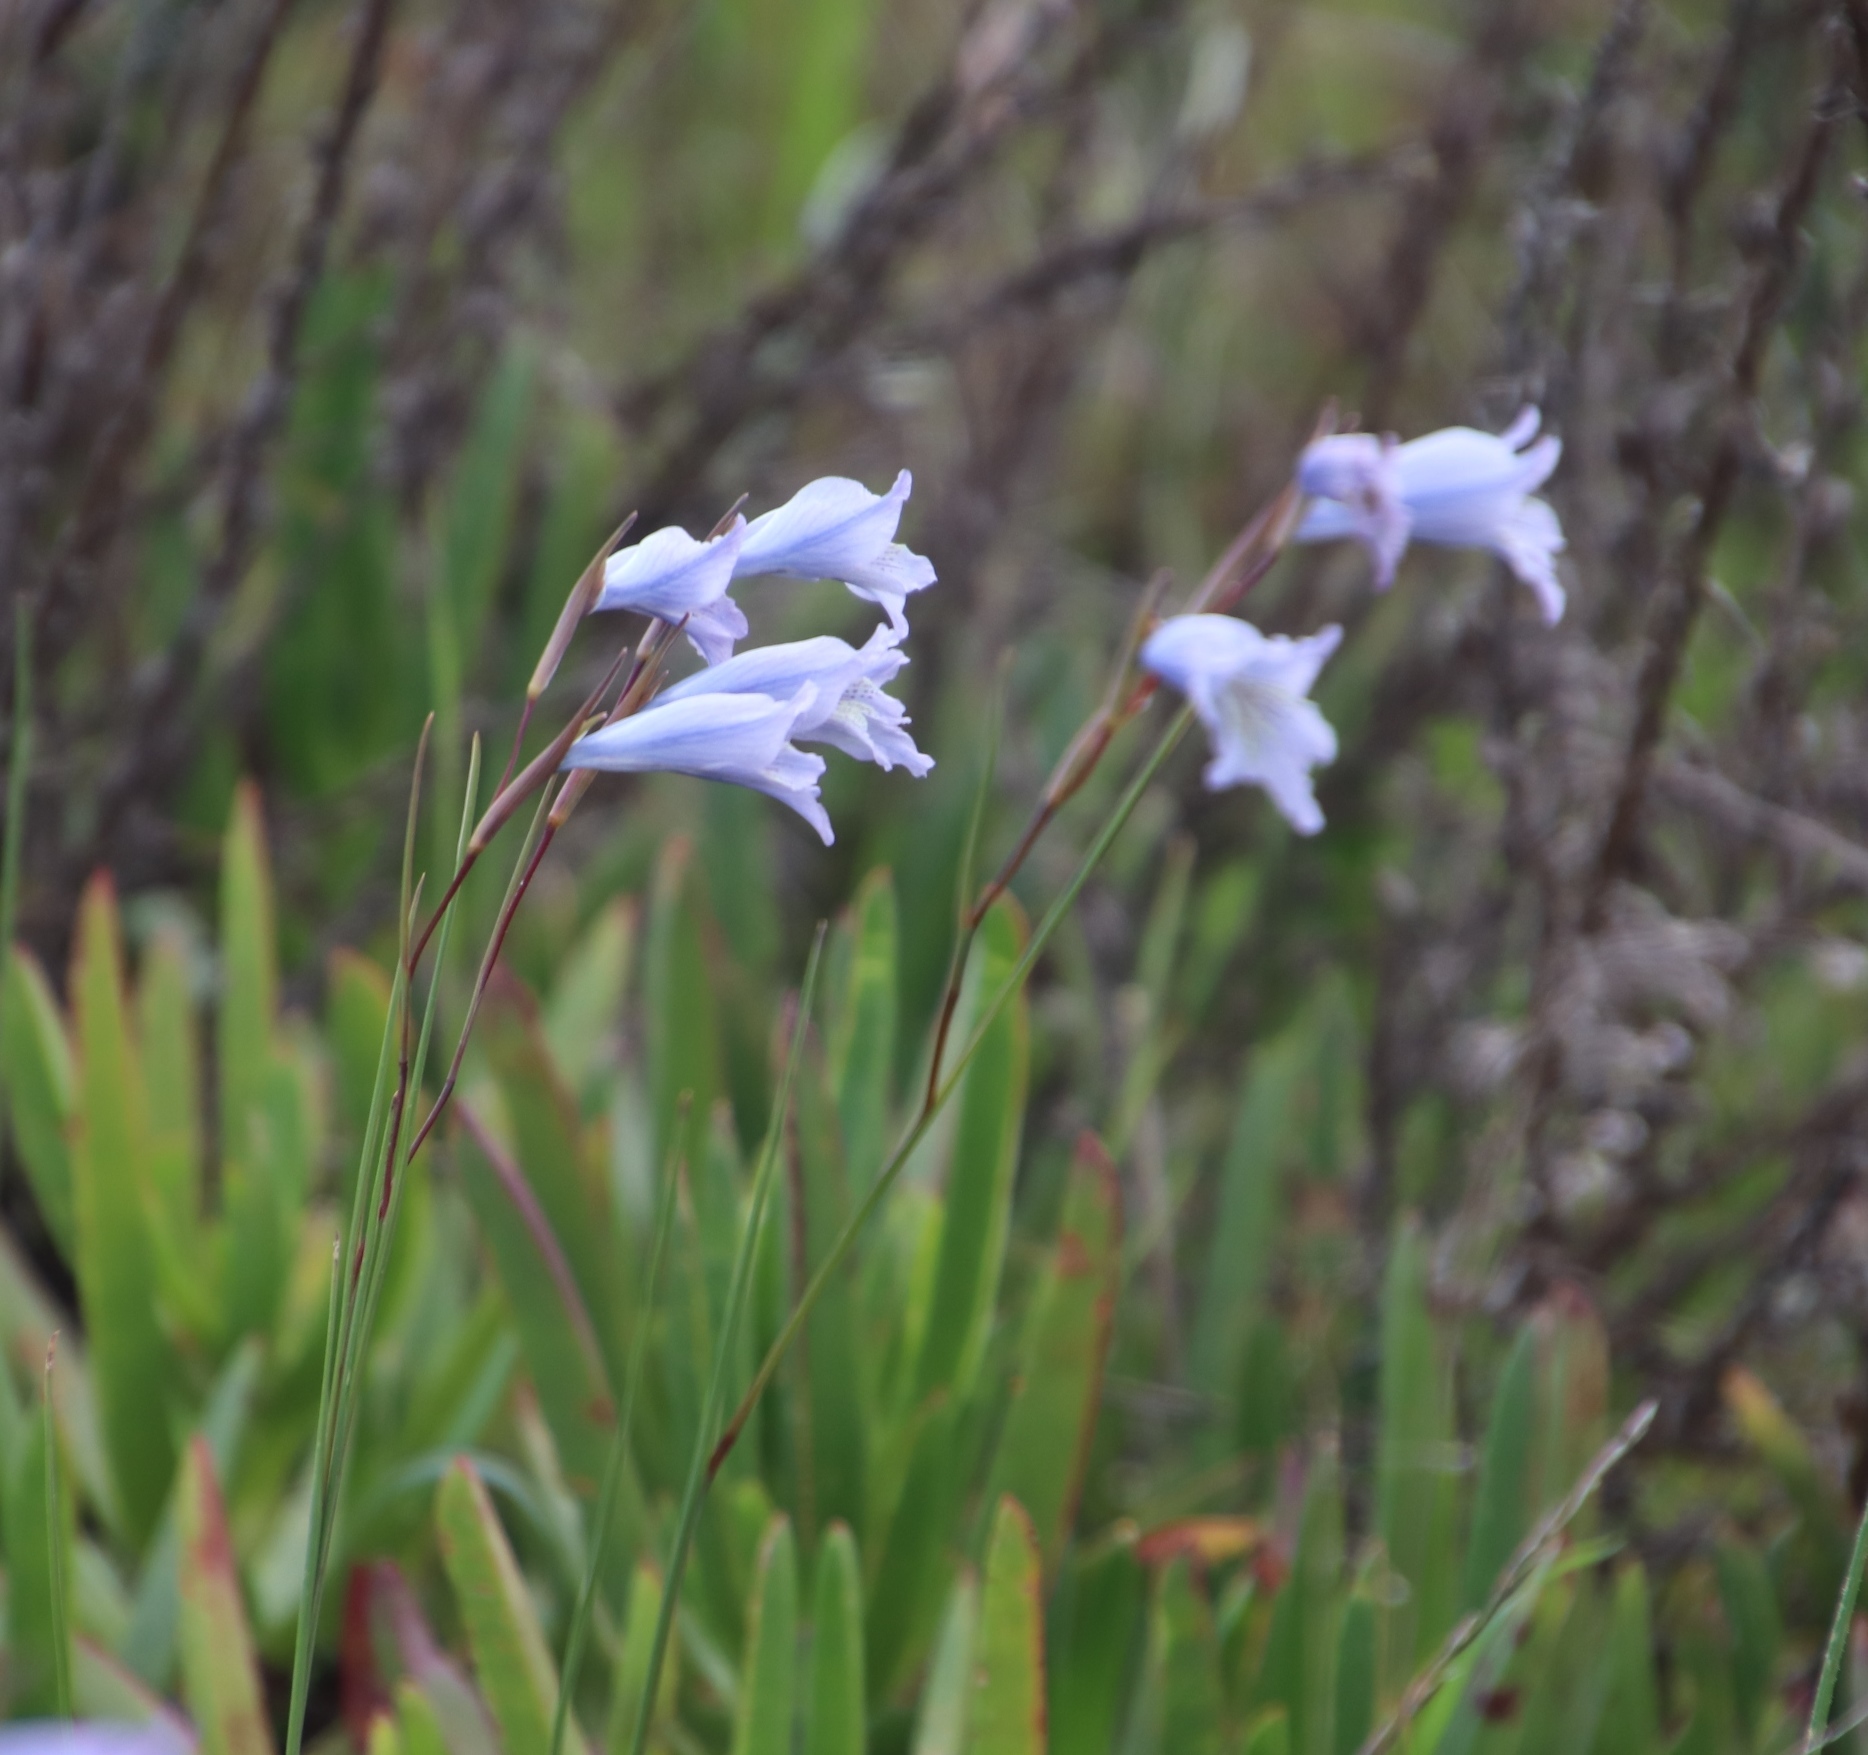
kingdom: Plantae
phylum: Tracheophyta
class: Liliopsida
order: Asparagales
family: Iridaceae
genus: Gladiolus
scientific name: Gladiolus gracilis
